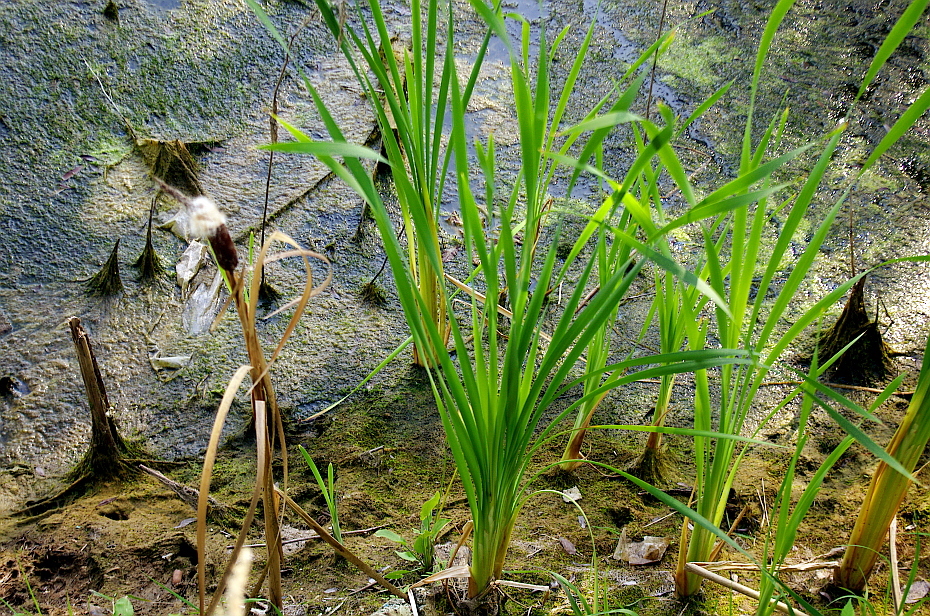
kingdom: Plantae
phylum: Tracheophyta
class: Liliopsida
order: Poales
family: Typhaceae
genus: Typha
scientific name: Typha latifolia
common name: Broadleaf cattail
